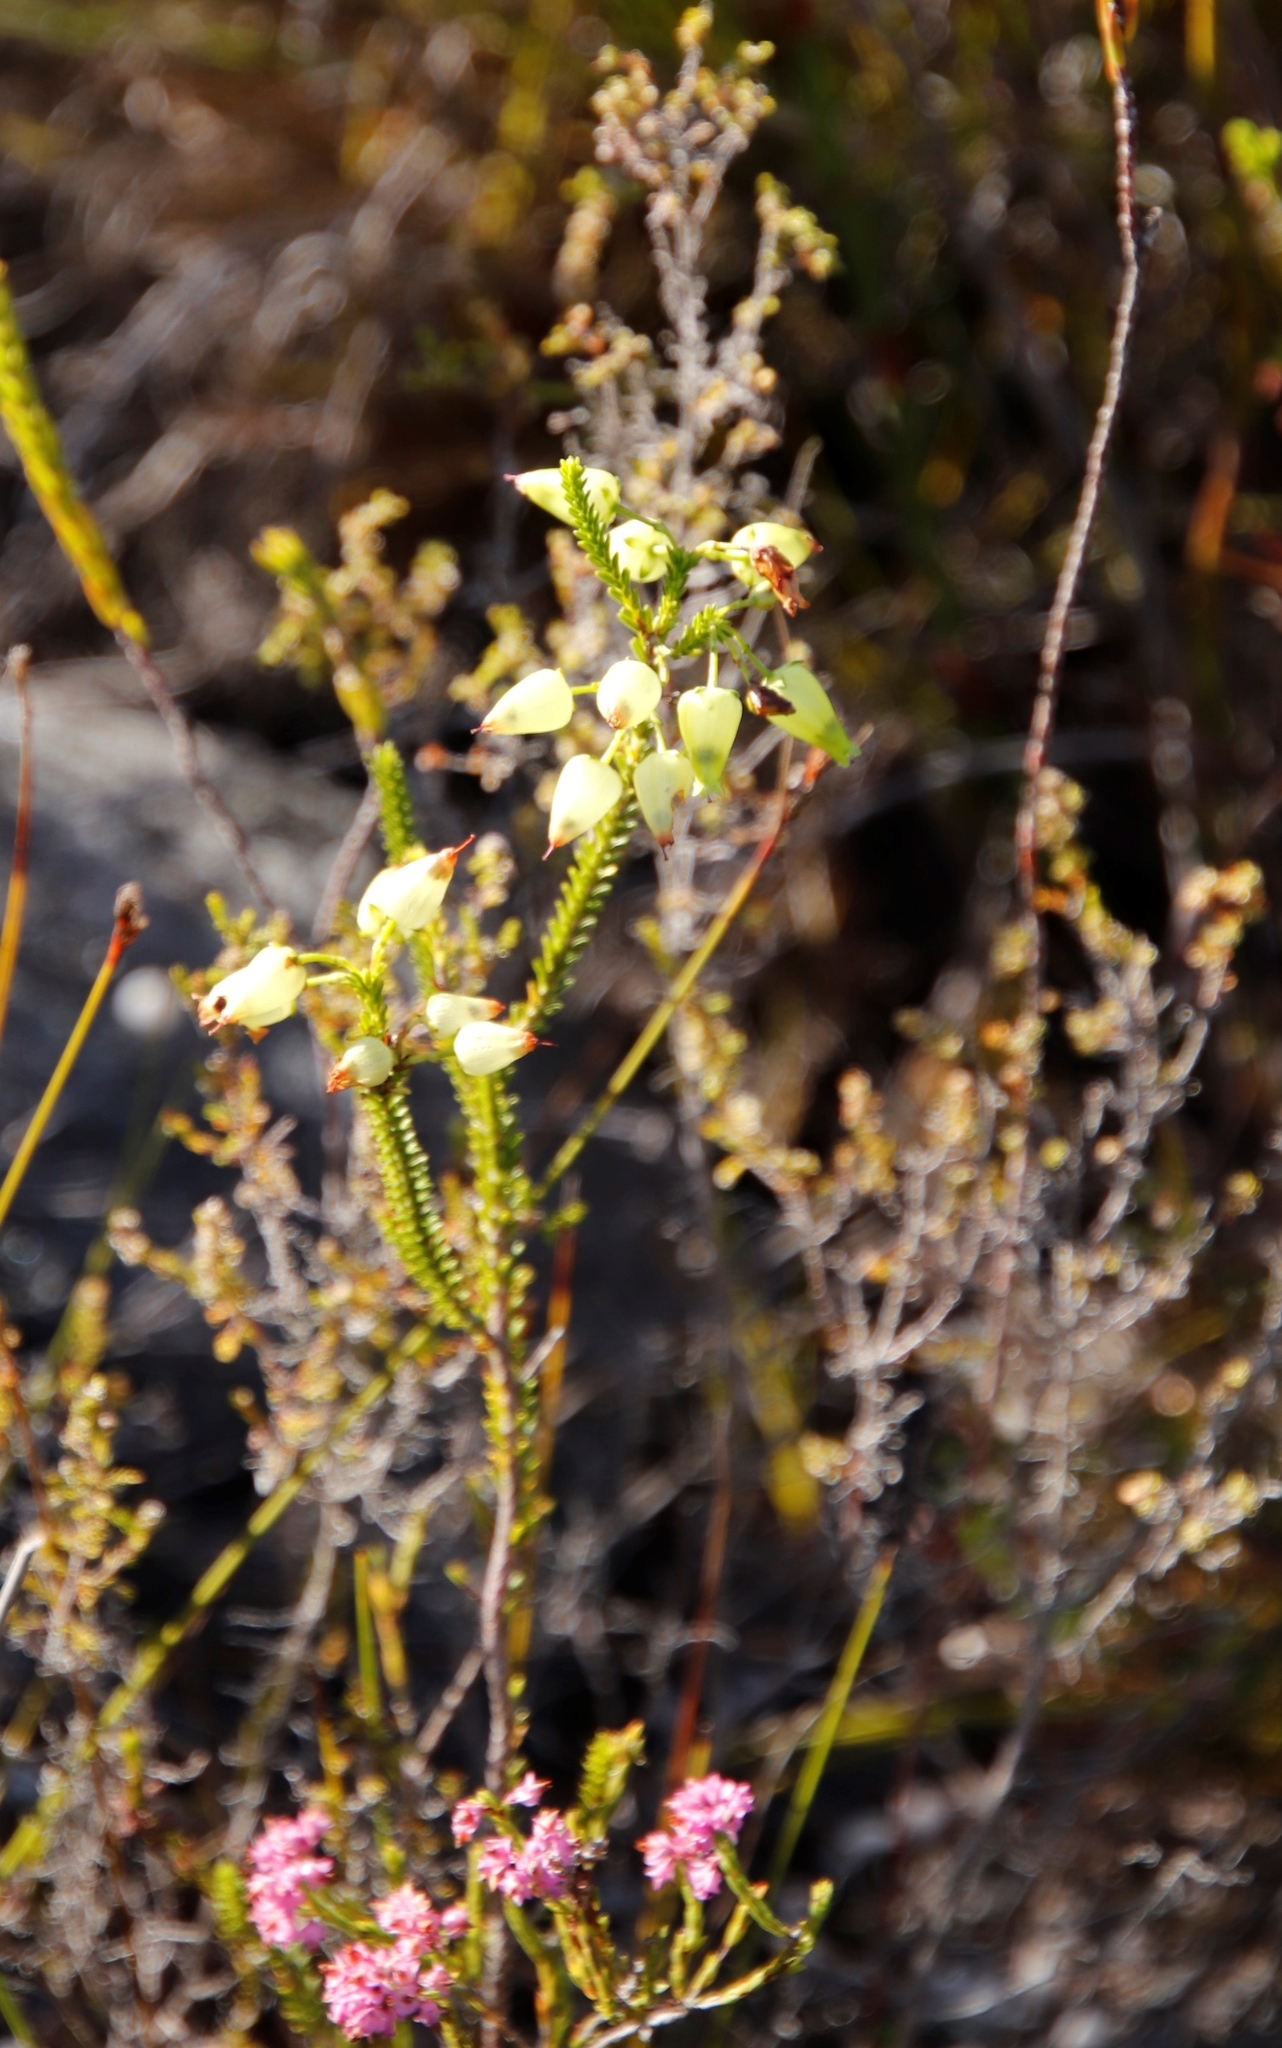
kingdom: Plantae
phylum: Tracheophyta
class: Magnoliopsida
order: Ericales
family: Ericaceae
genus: Erica
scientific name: Erica urna-viridis
